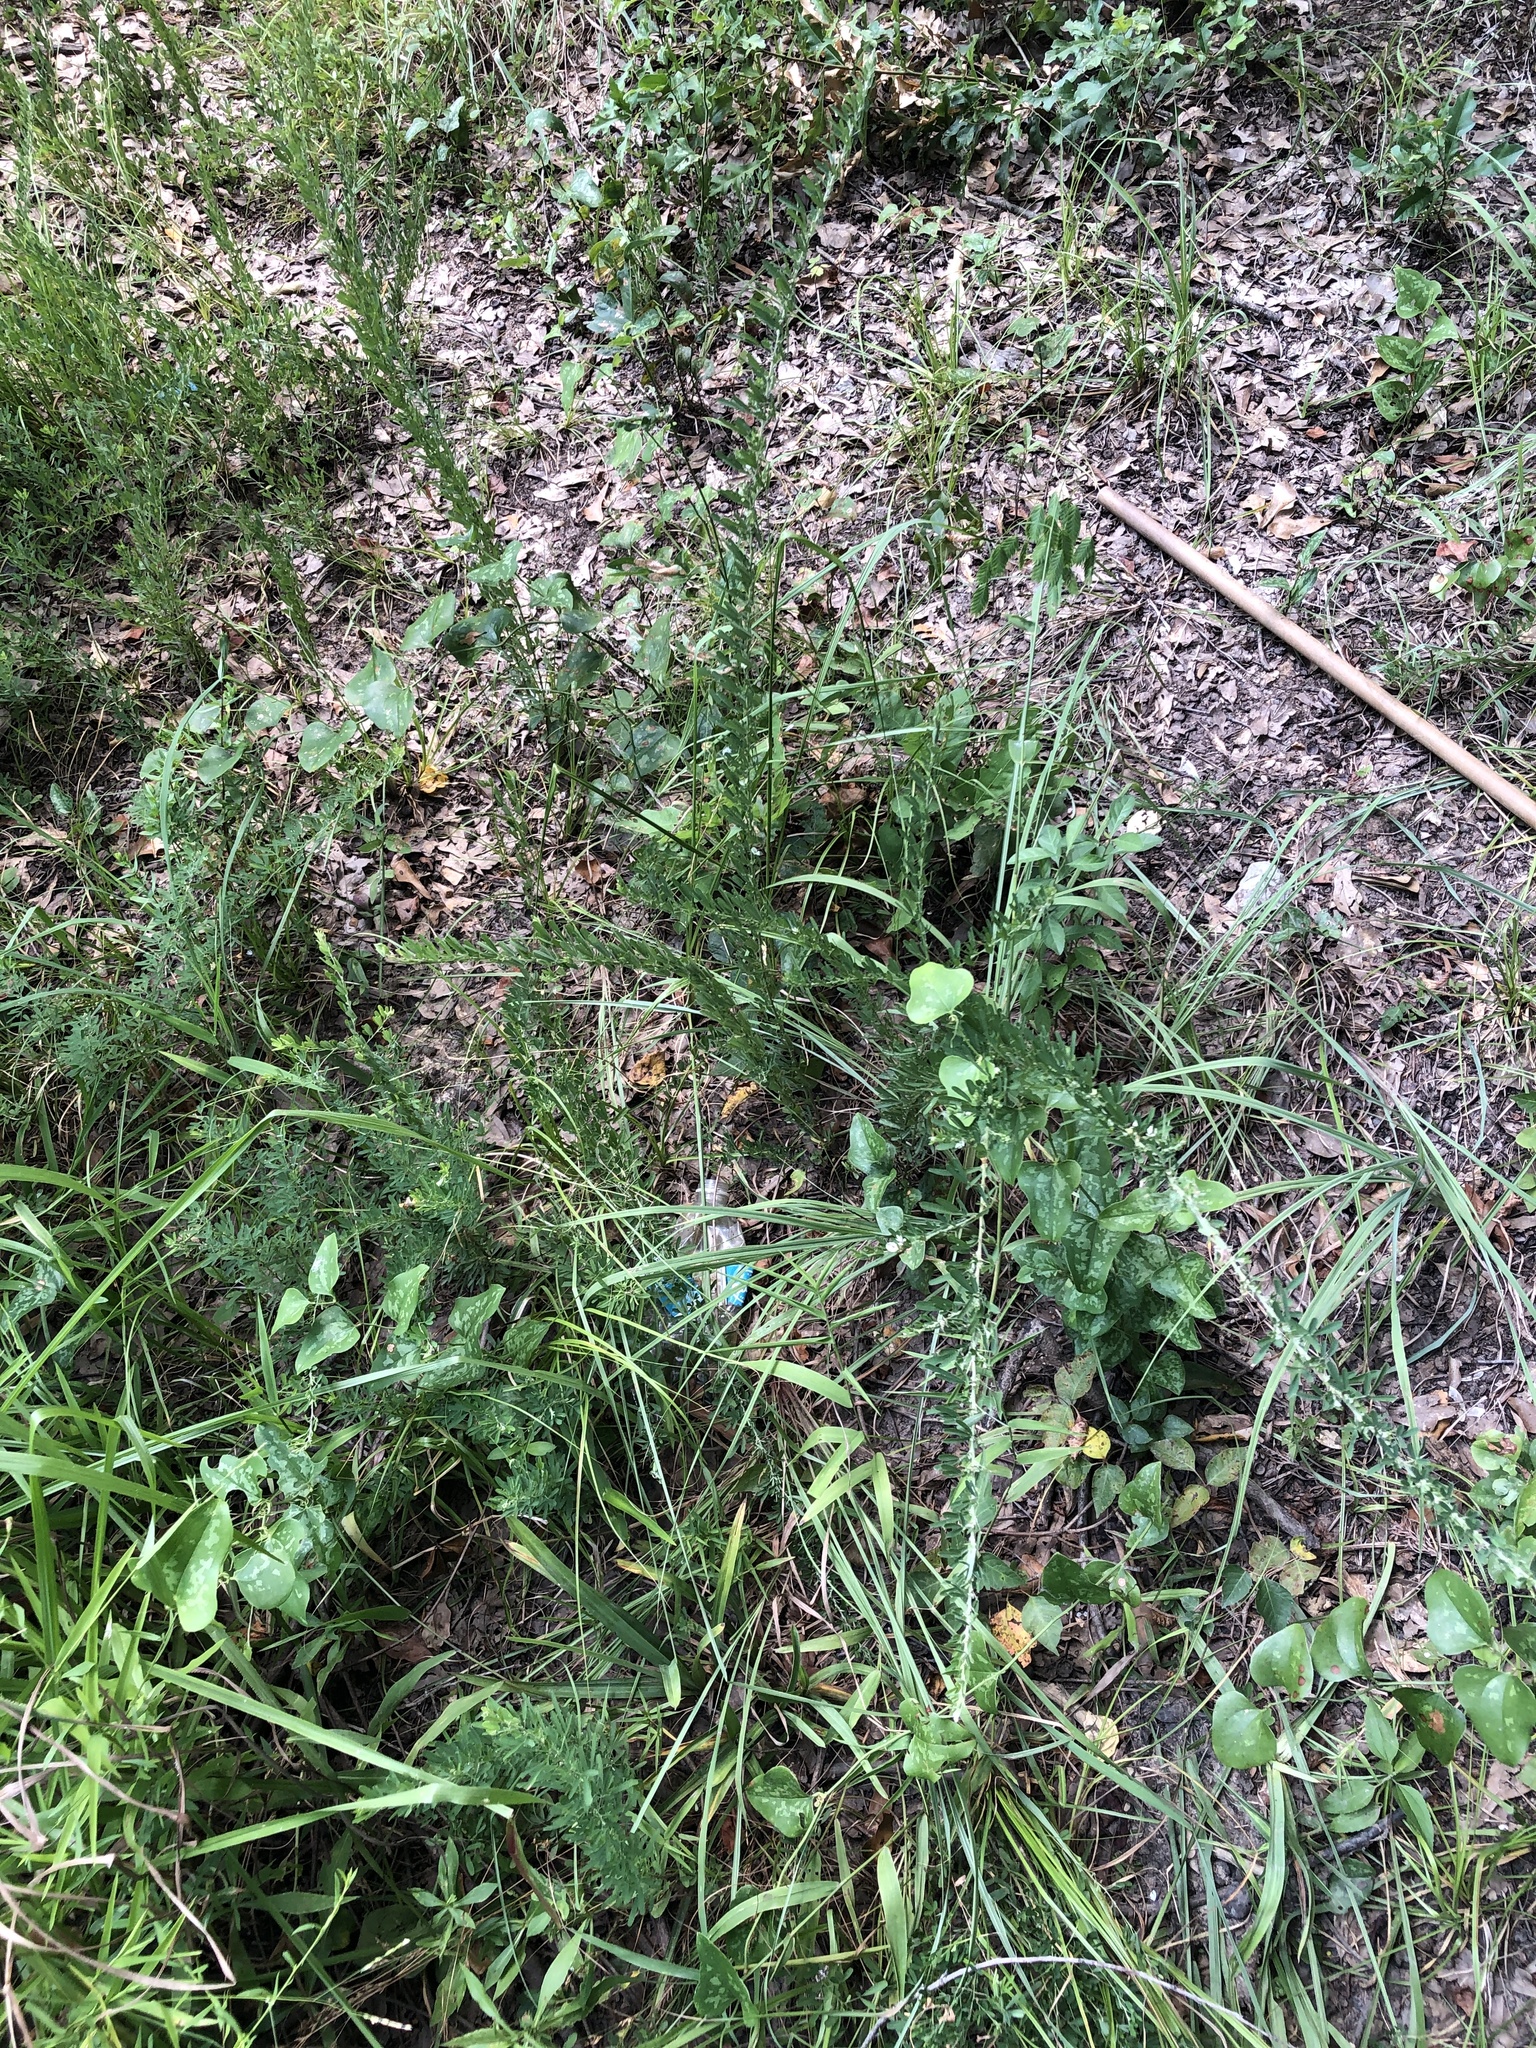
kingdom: Plantae
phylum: Tracheophyta
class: Magnoliopsida
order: Fabales
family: Fabaceae
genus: Lespedeza
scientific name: Lespedeza cuneata
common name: Chinese bush-clover
